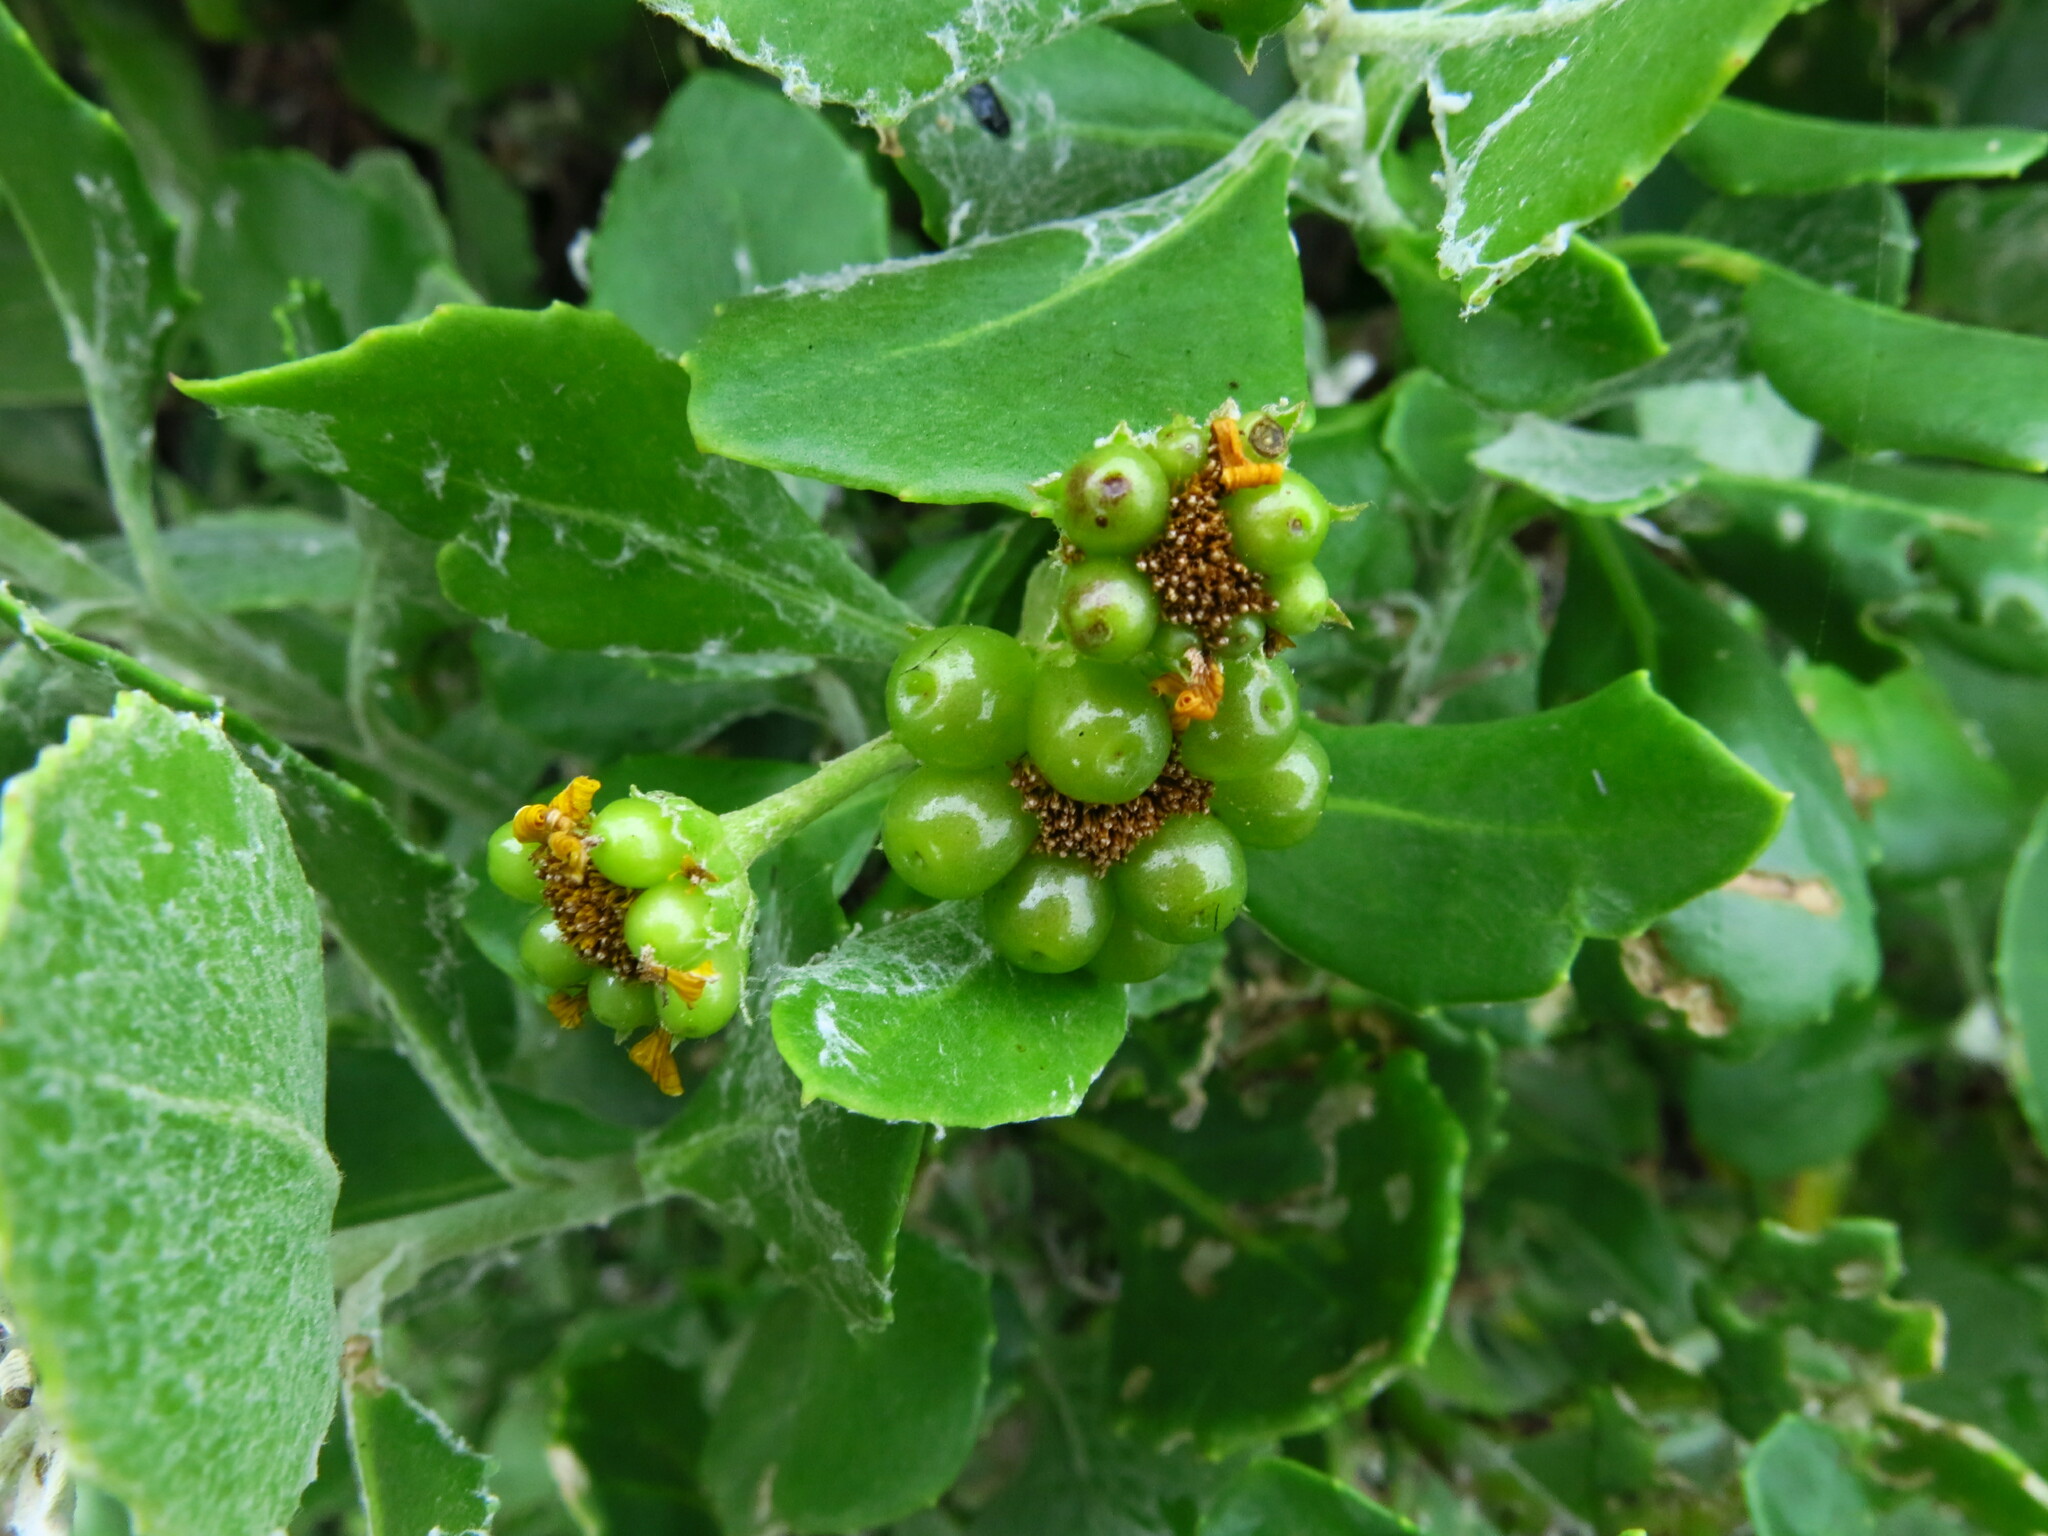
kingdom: Plantae
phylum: Tracheophyta
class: Magnoliopsida
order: Asterales
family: Asteraceae
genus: Osteospermum
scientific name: Osteospermum moniliferum
